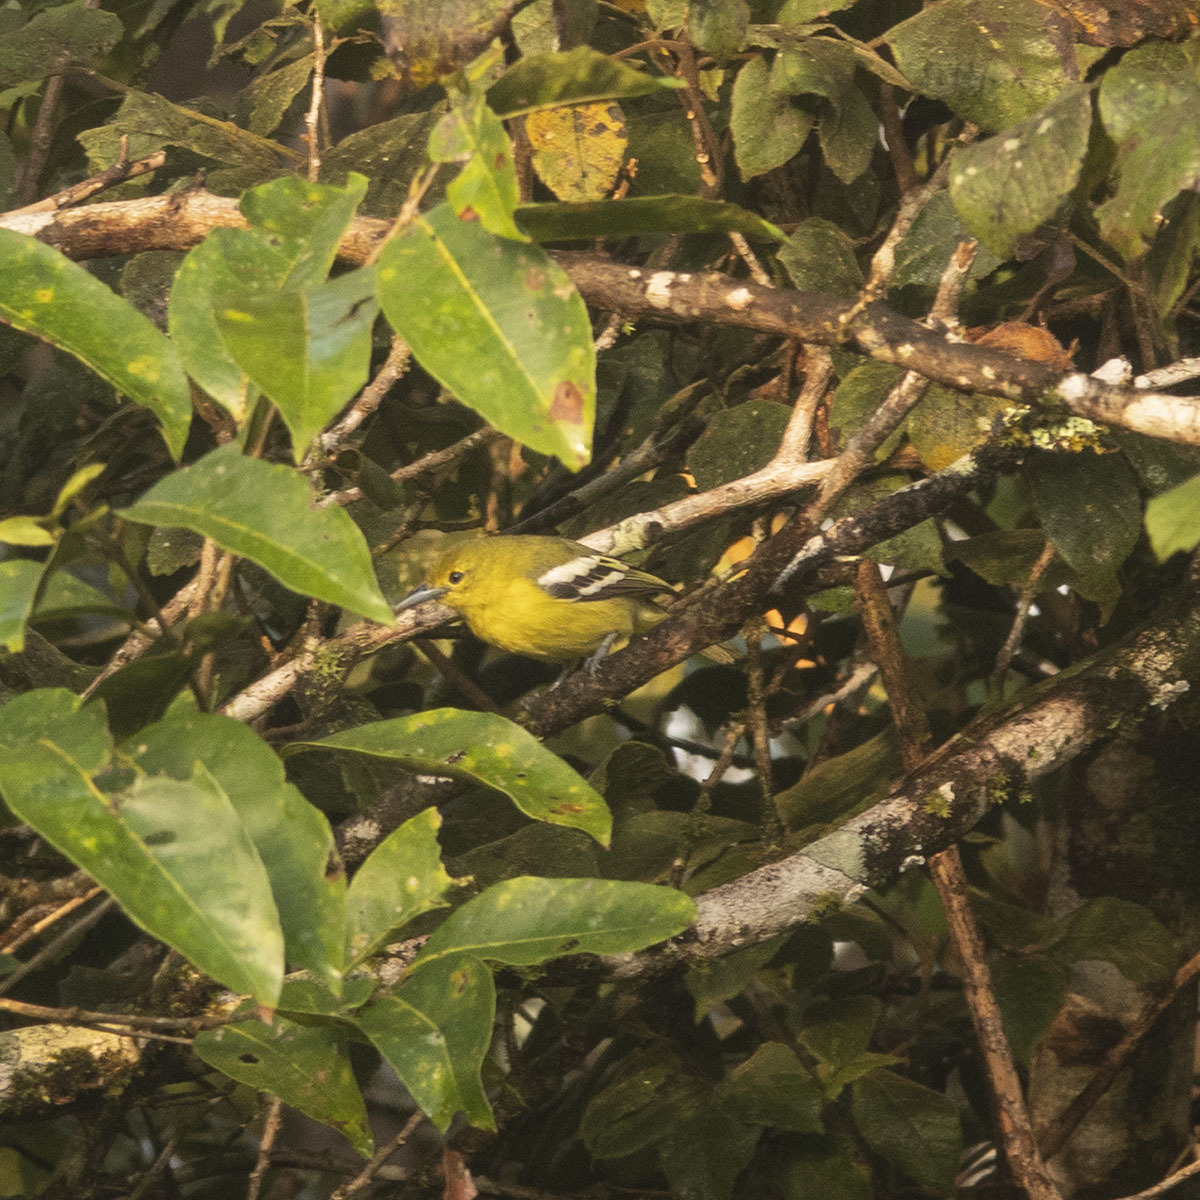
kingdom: Animalia
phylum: Chordata
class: Aves
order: Passeriformes
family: Aegithinidae
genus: Aegithina
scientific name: Aegithina tiphia
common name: Common iora
